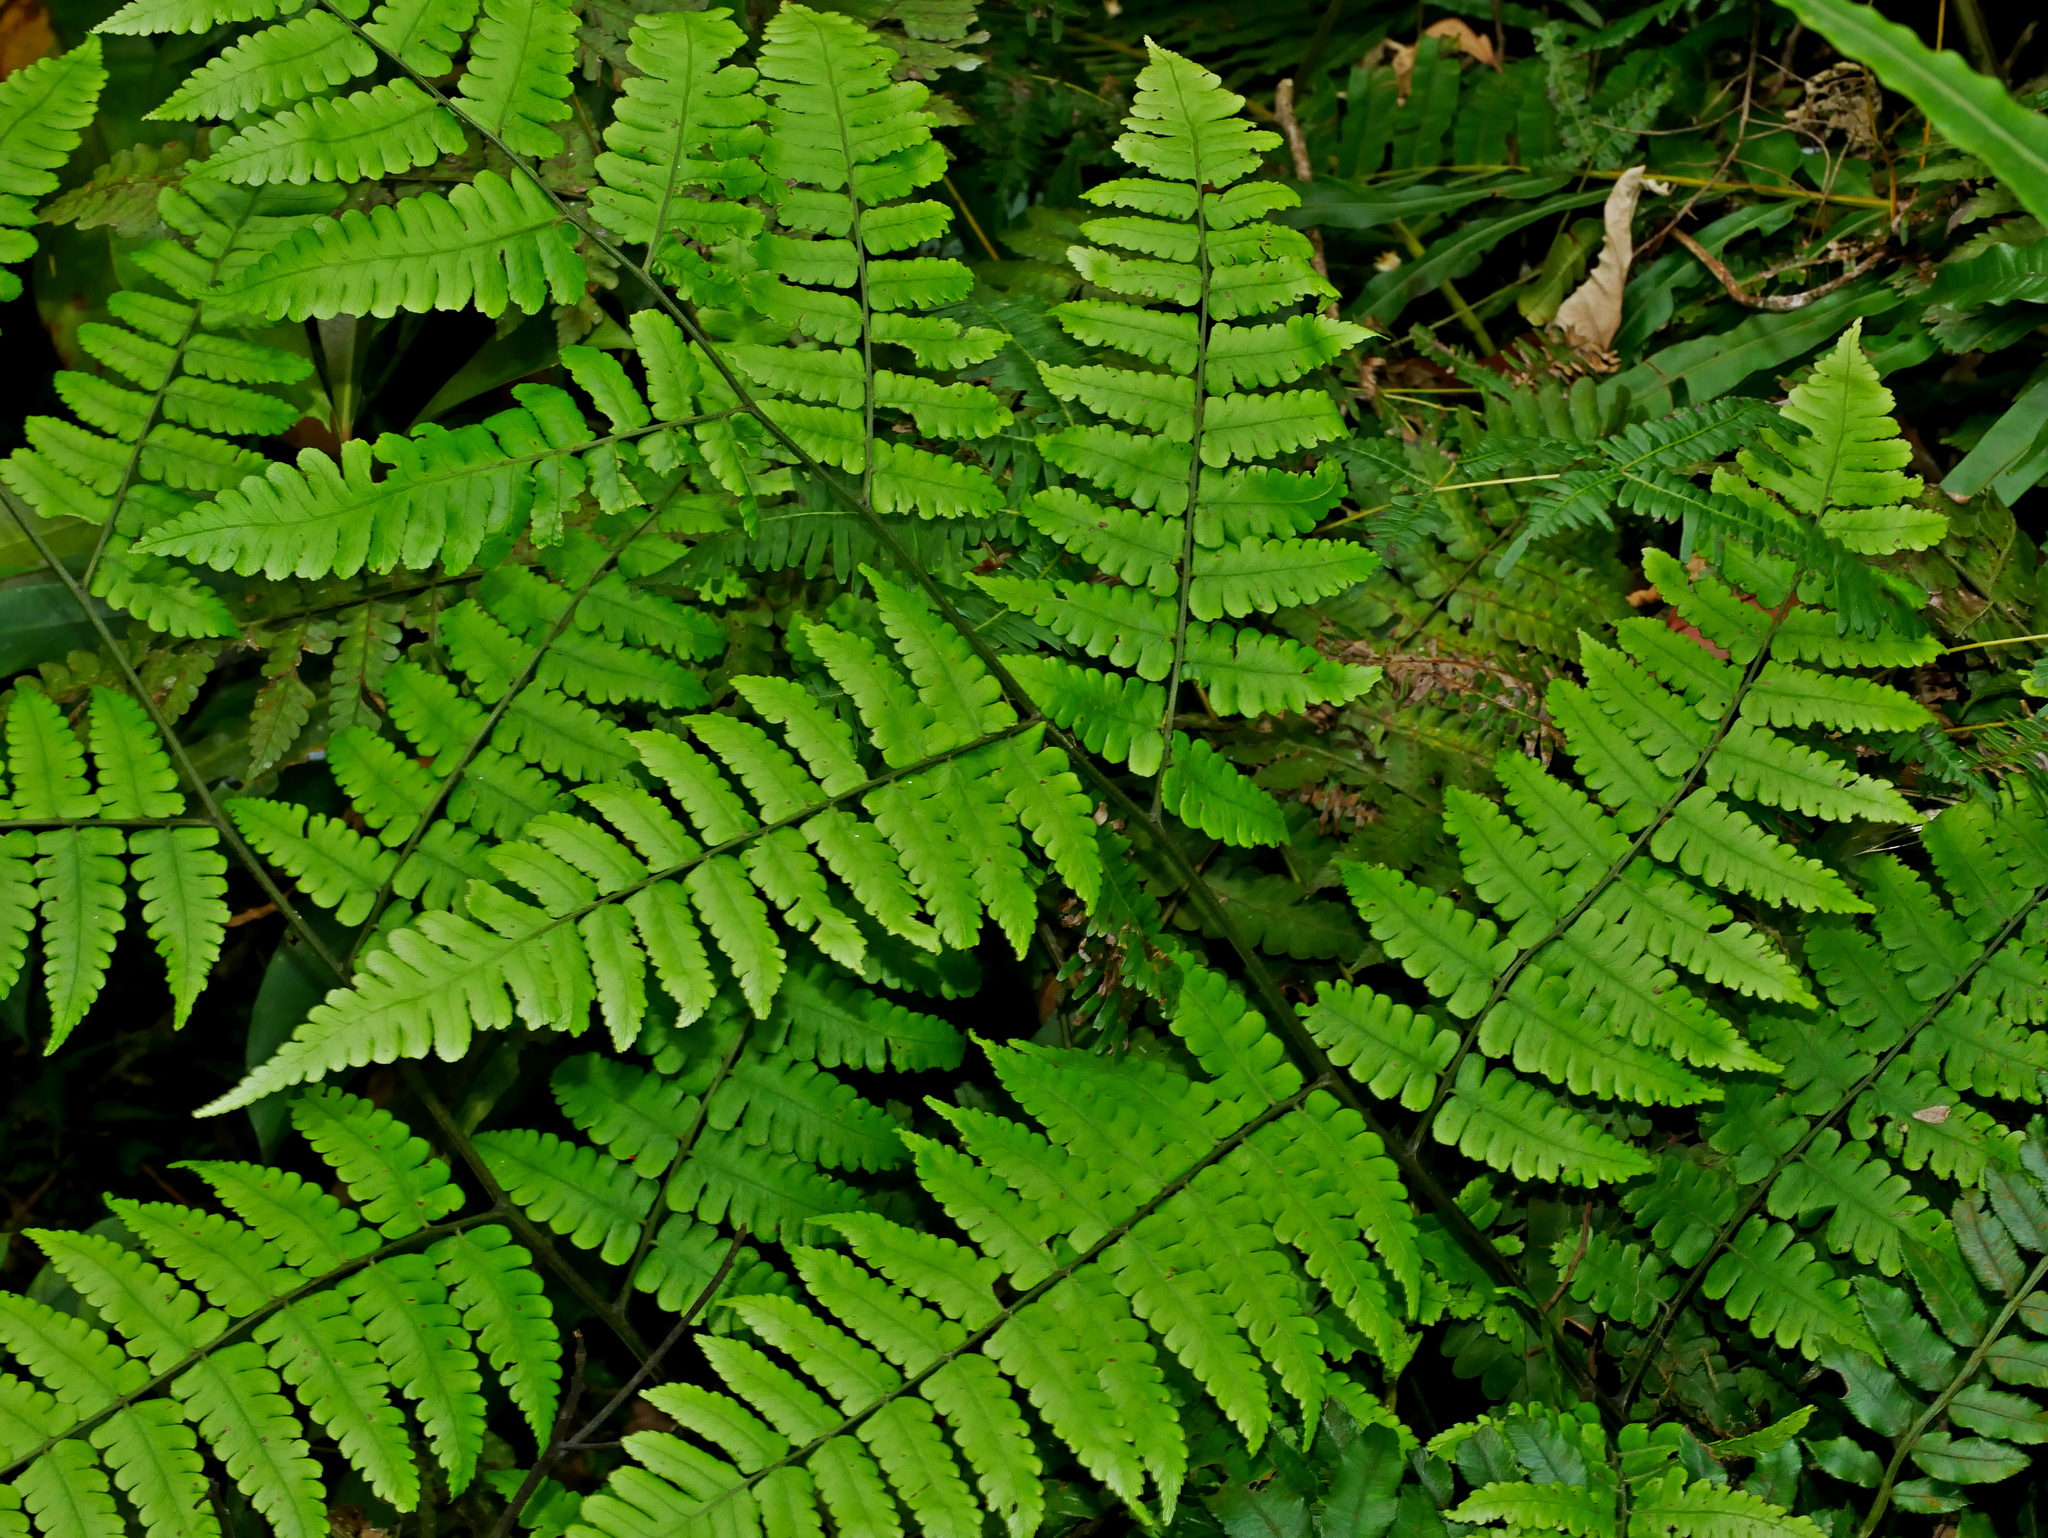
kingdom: Plantae
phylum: Tracheophyta
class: Polypodiopsida
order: Polypodiales
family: Athyriaceae
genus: Diplazium
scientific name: Diplazium doederleinii
